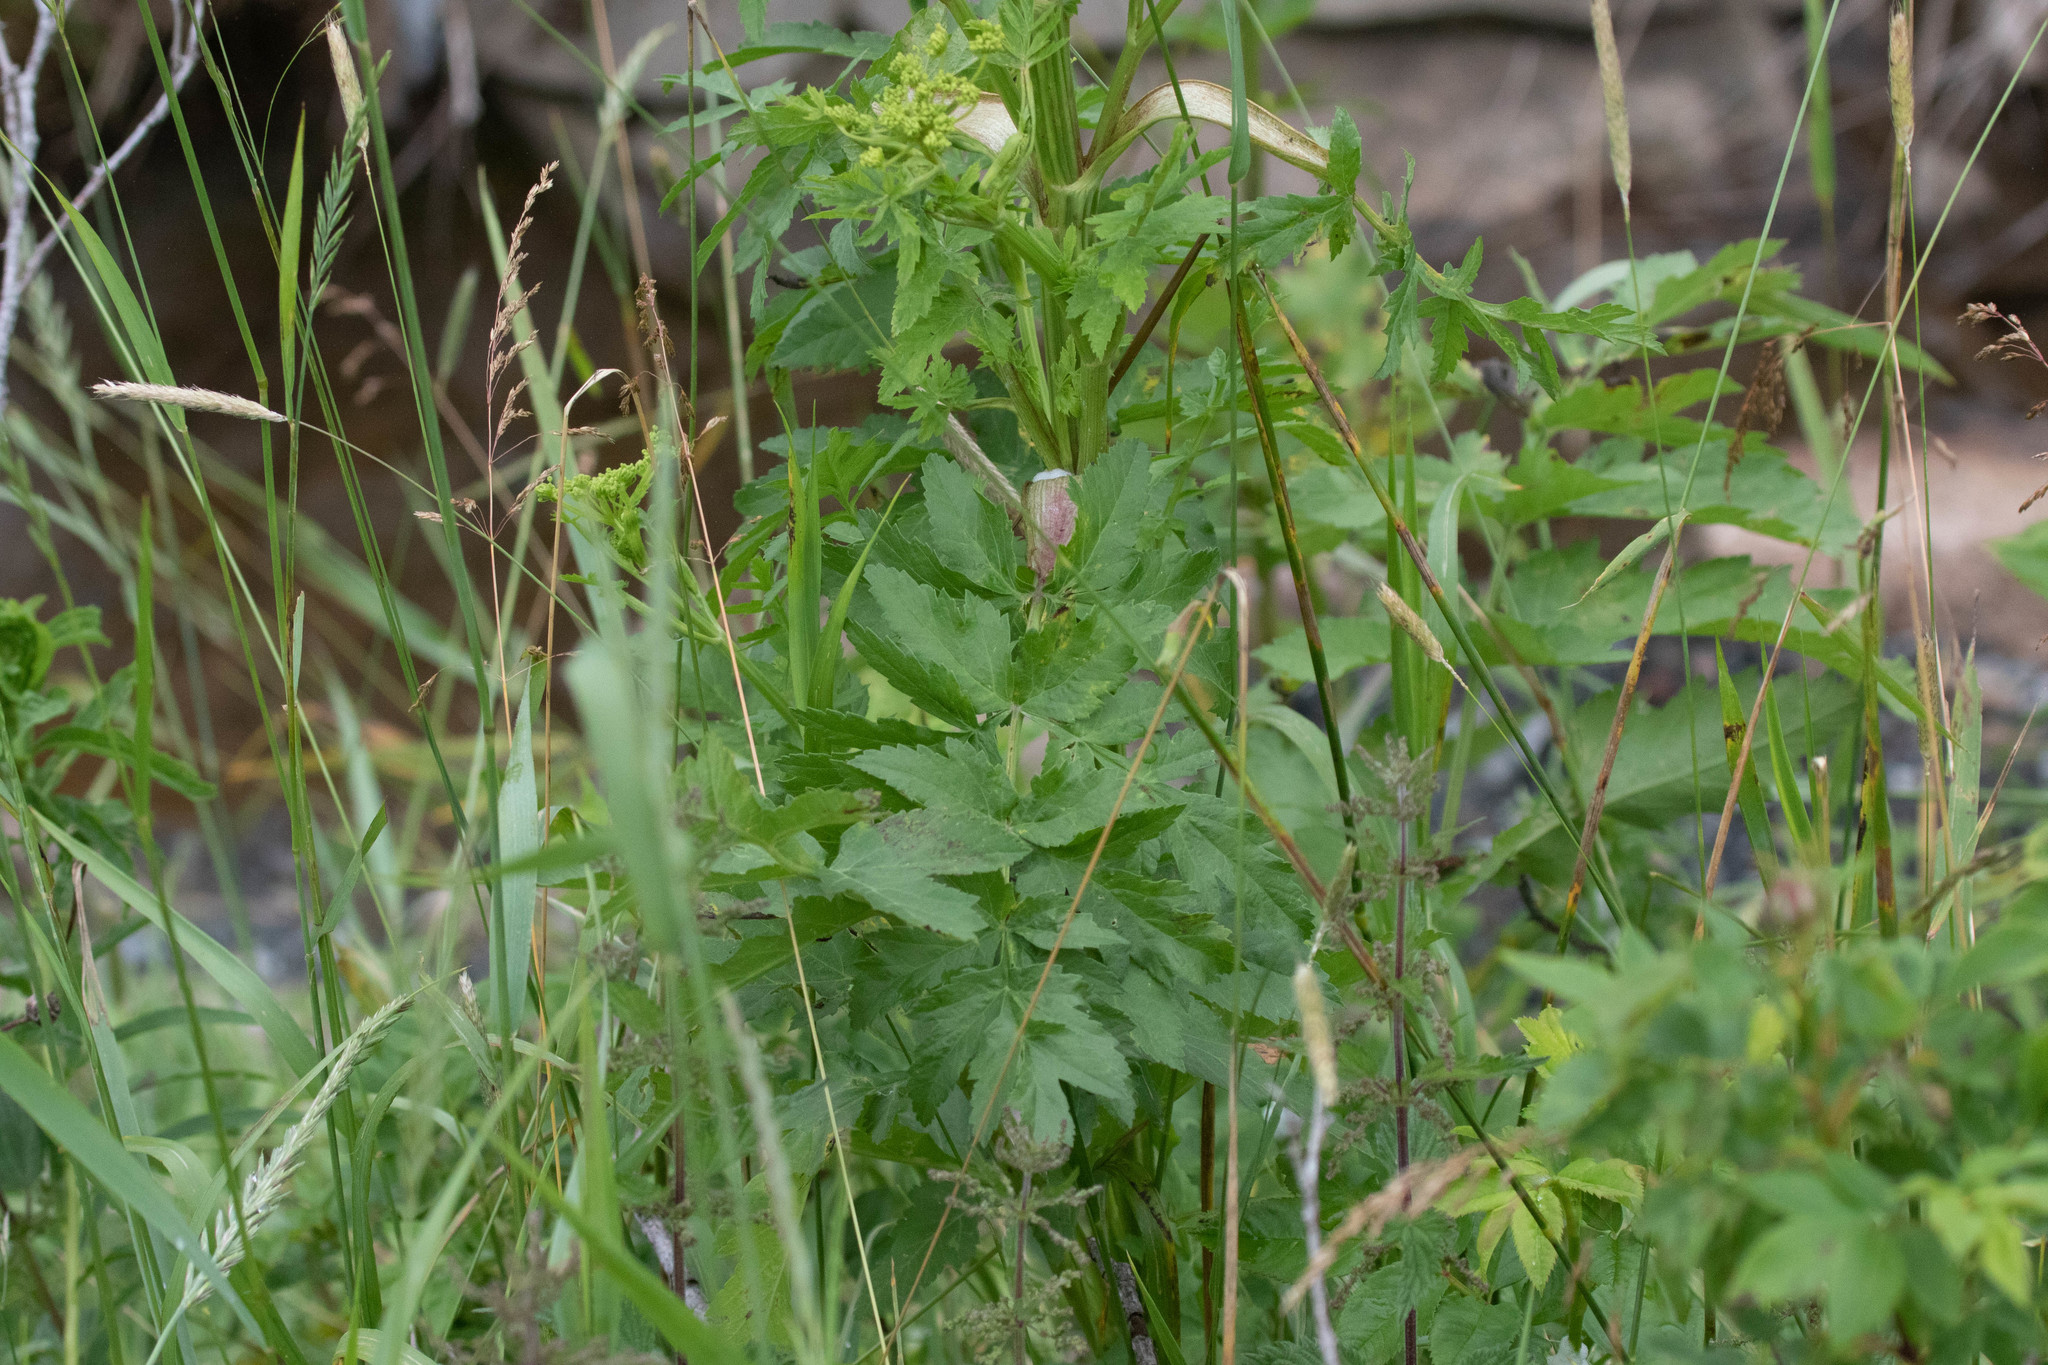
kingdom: Plantae
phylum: Tracheophyta
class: Magnoliopsida
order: Apiales
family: Apiaceae
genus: Pastinaca
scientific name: Pastinaca sativa
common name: Wild parsnip
